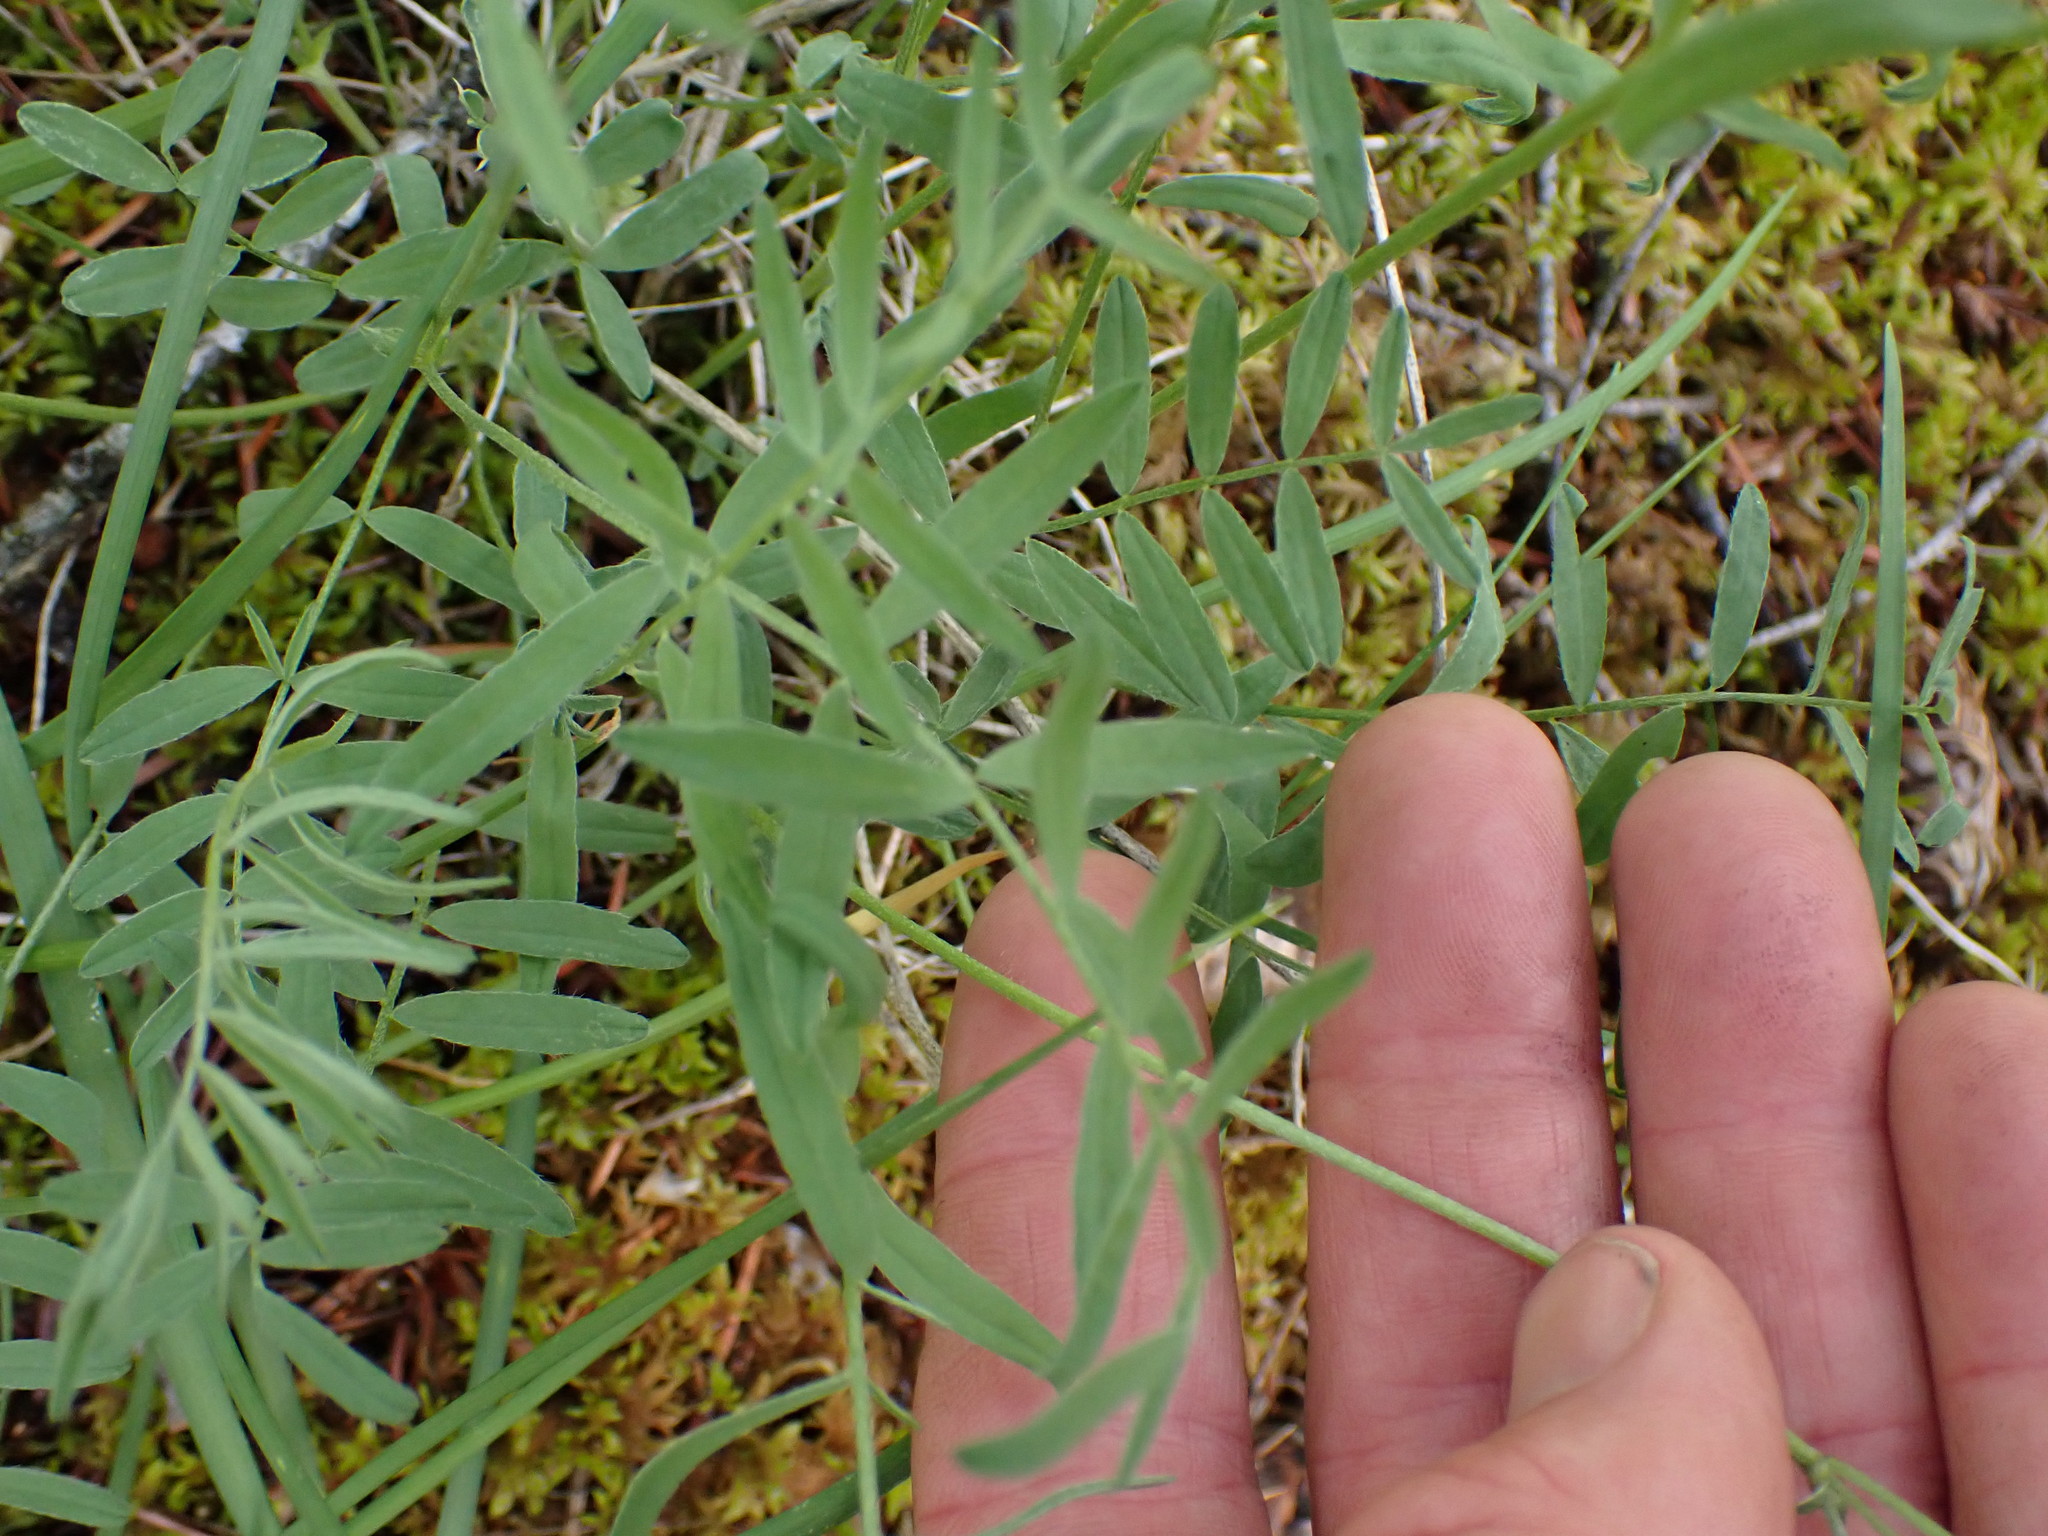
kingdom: Plantae
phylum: Tracheophyta
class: Magnoliopsida
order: Fabales
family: Fabaceae
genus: Astragalus
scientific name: Astragalus miser
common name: Timber milkvetch
